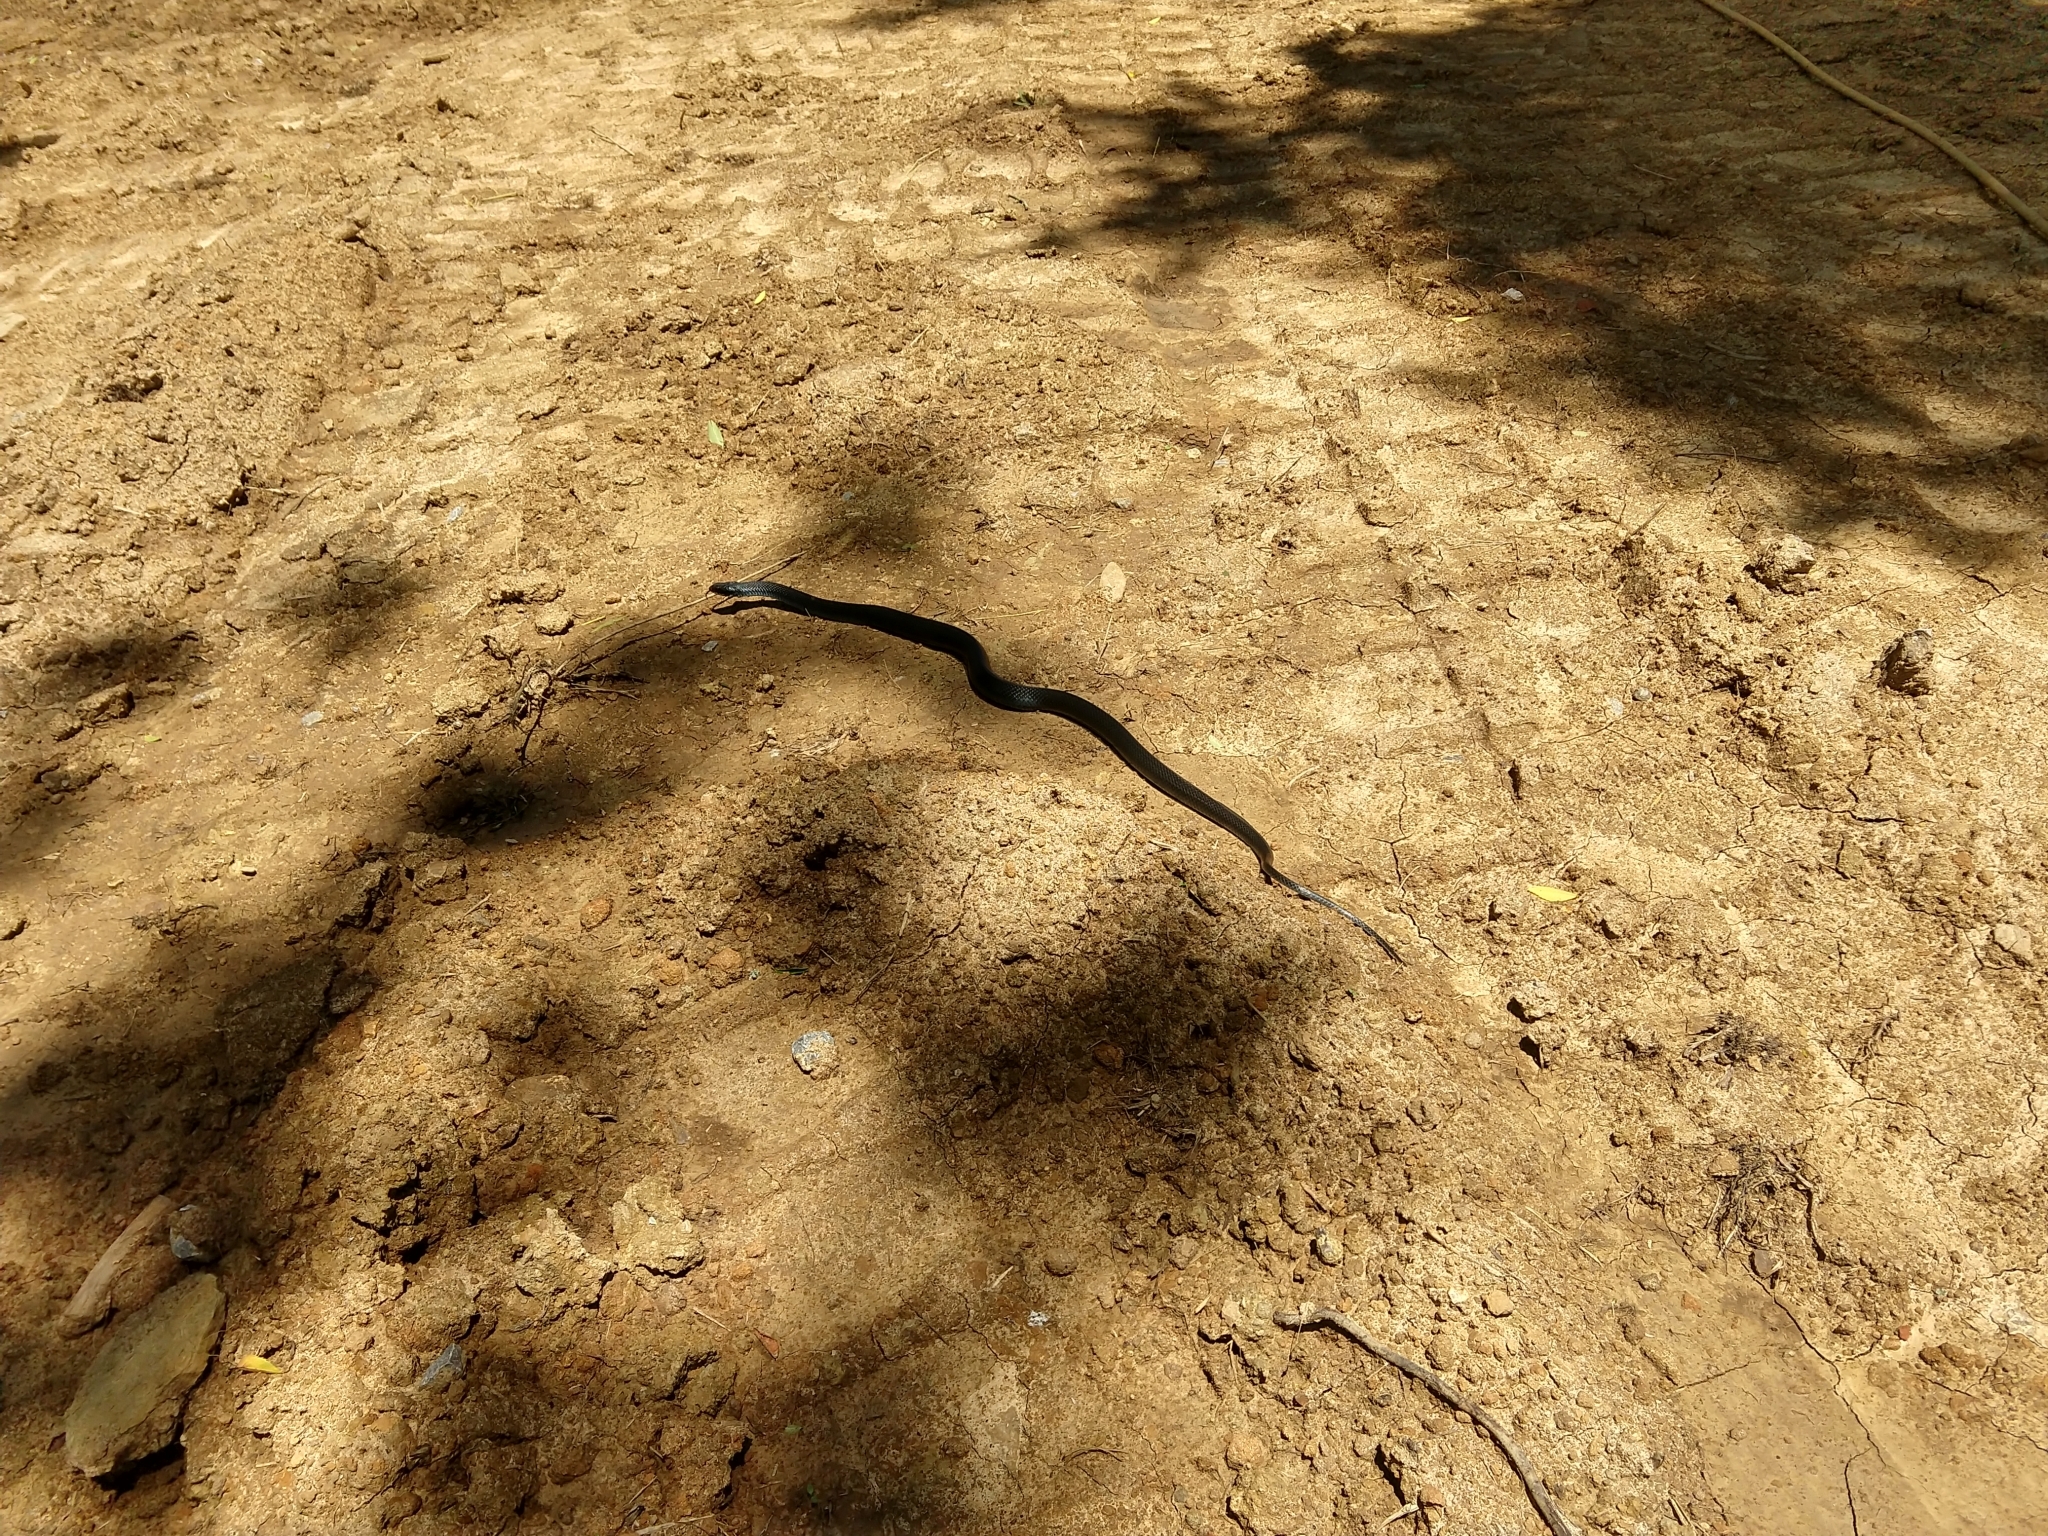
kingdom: Animalia
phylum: Chordata
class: Squamata
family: Colubridae
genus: Coluber
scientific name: Coluber constrictor
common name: Eastern racer
